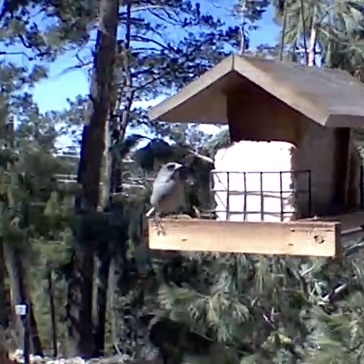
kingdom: Animalia
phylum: Chordata
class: Aves
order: Passeriformes
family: Passerellidae
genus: Junco
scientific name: Junco hyemalis
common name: Dark-eyed junco
